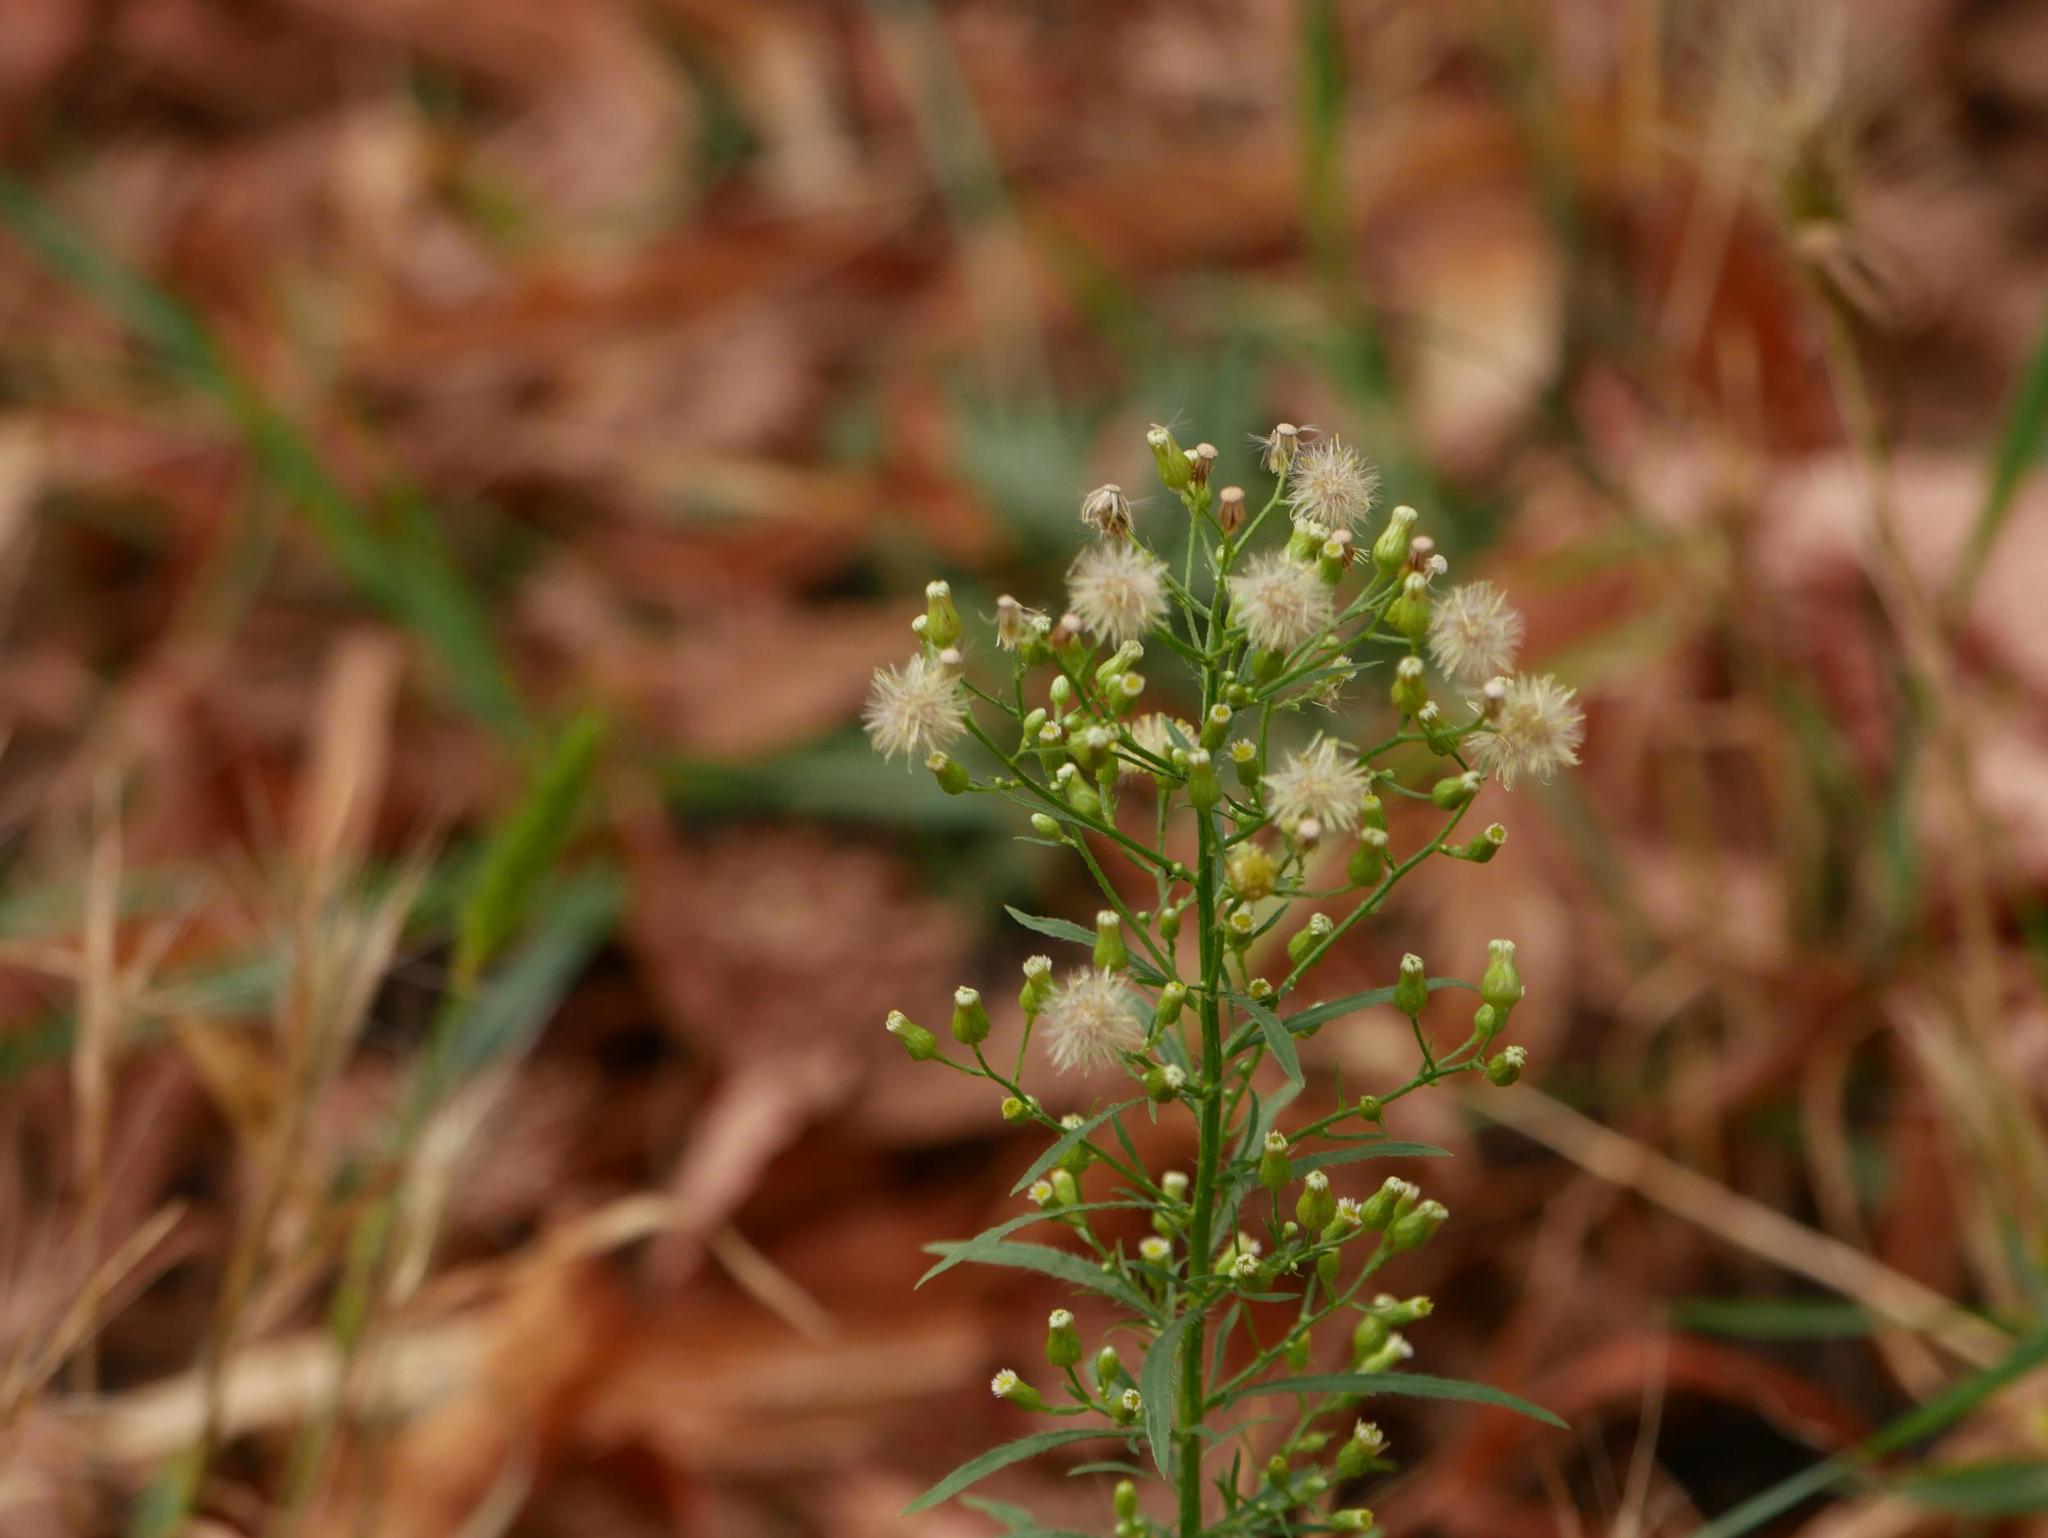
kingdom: Plantae
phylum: Tracheophyta
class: Magnoliopsida
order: Asterales
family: Asteraceae
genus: Erigeron
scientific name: Erigeron canadensis
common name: Canadian fleabane
